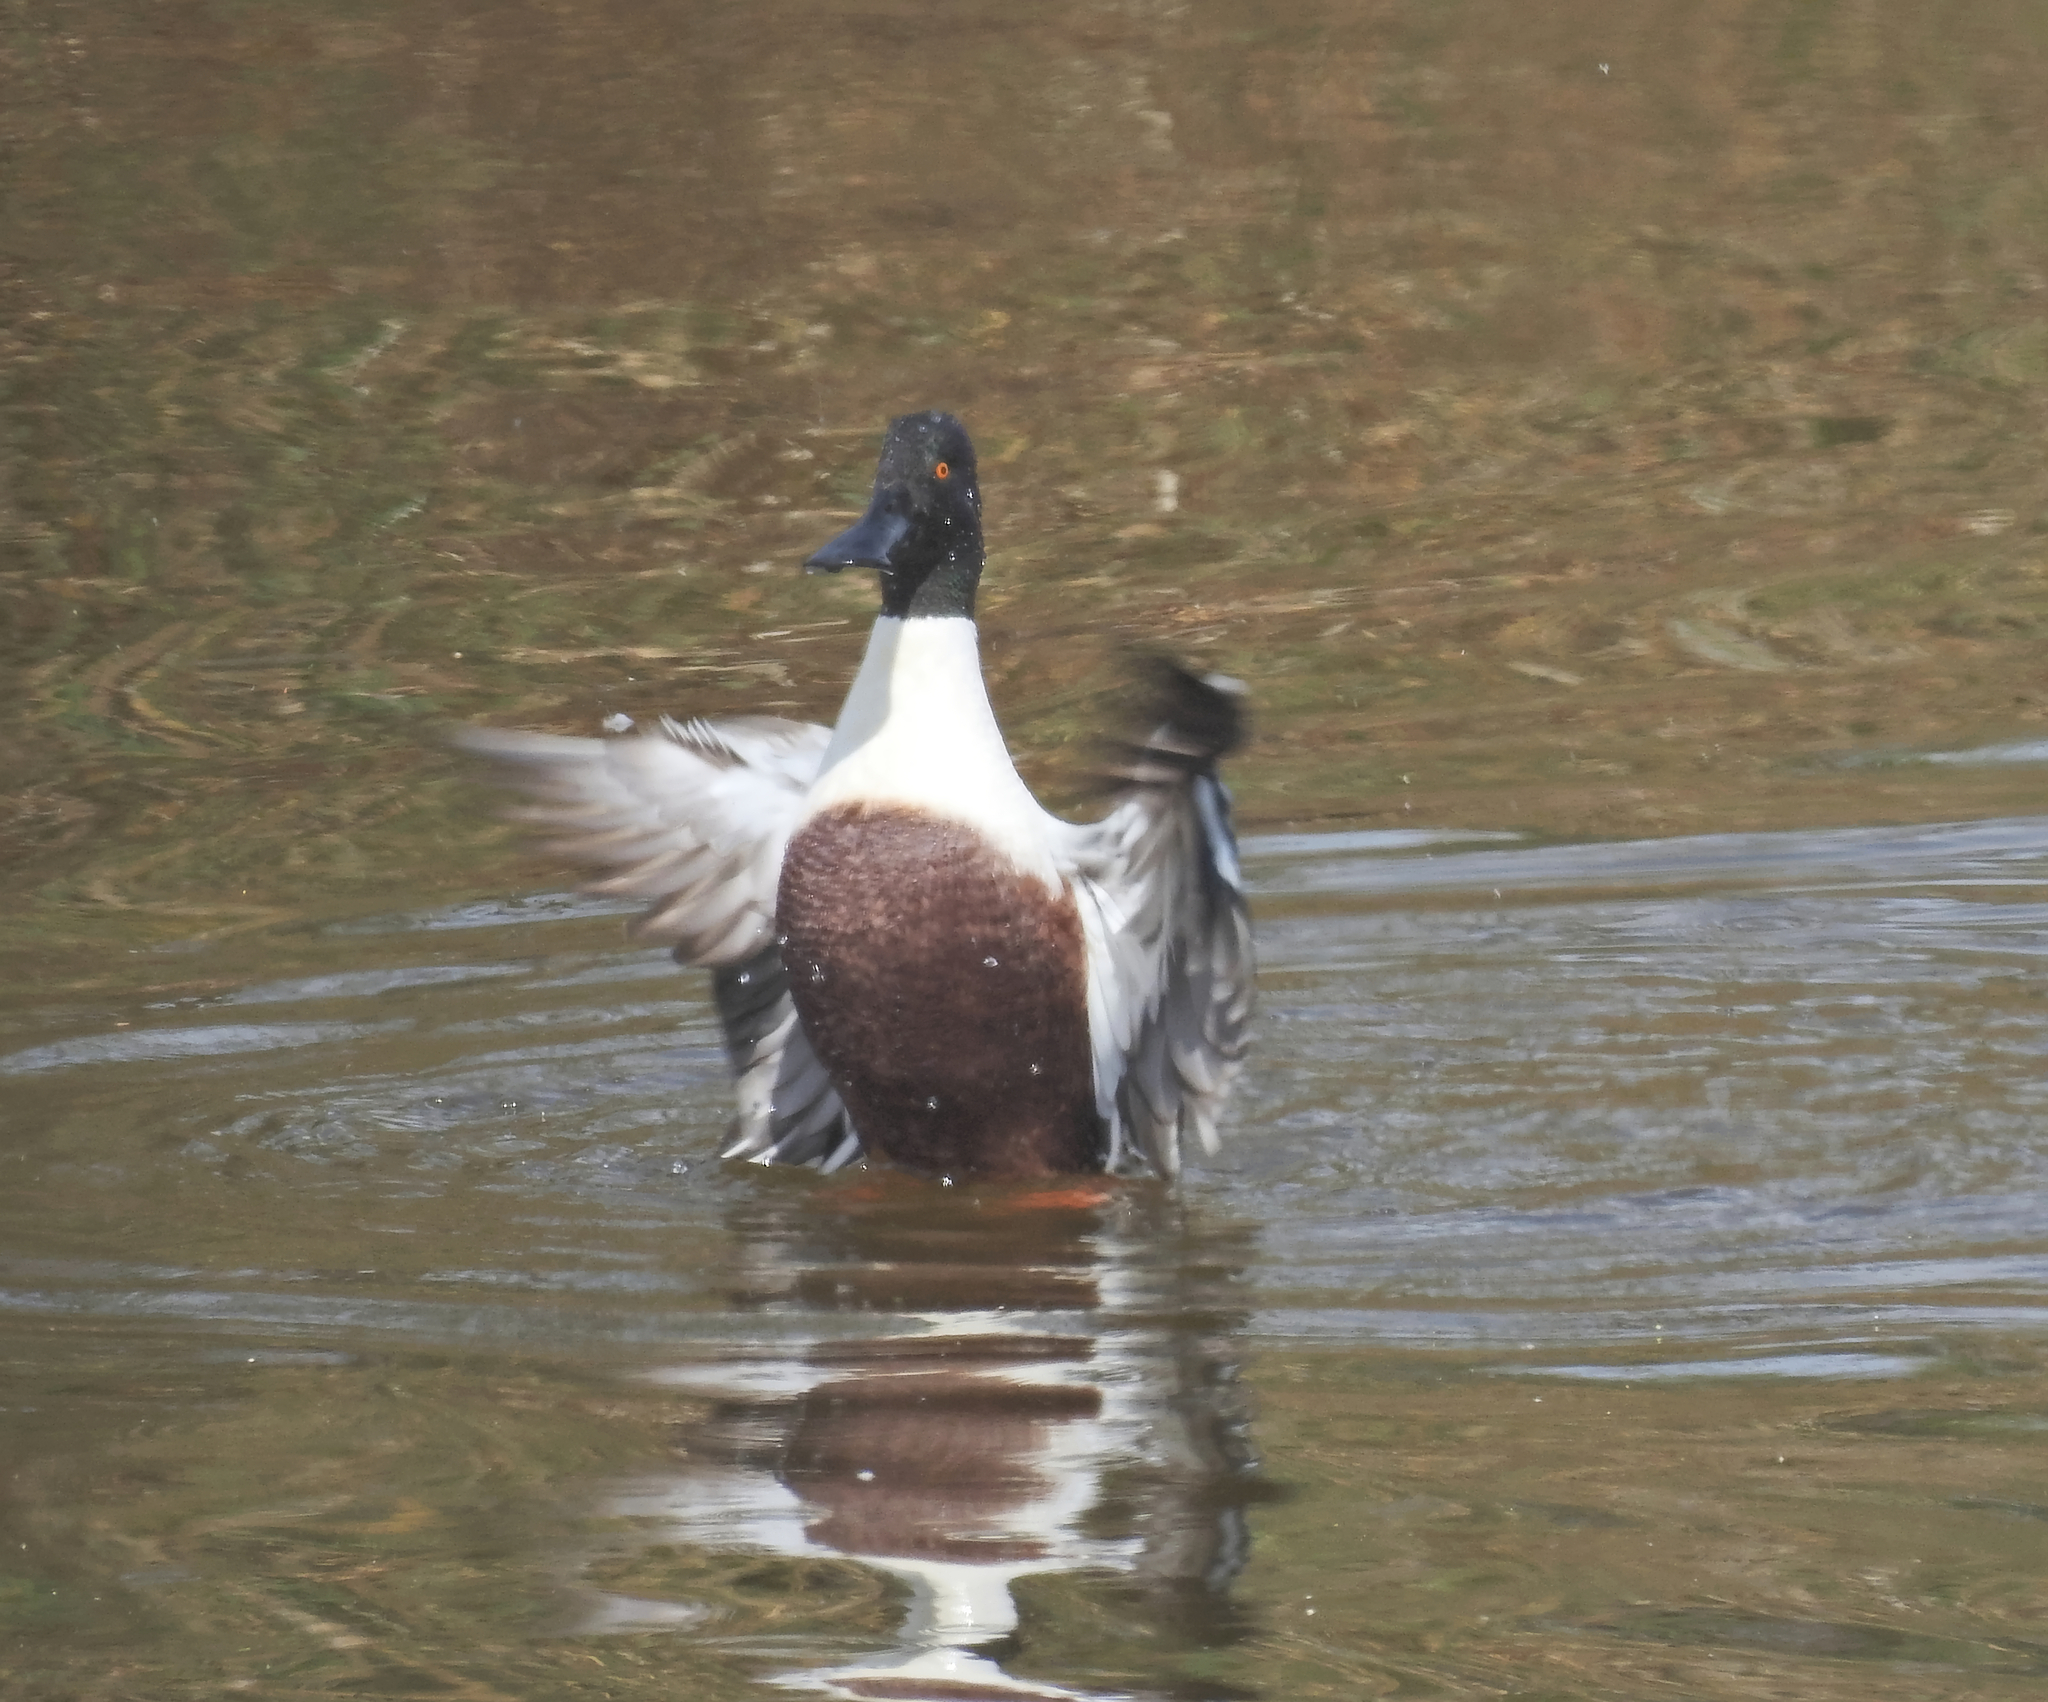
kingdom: Animalia
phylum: Chordata
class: Aves
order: Anseriformes
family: Anatidae
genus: Spatula
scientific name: Spatula clypeata
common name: Northern shoveler
